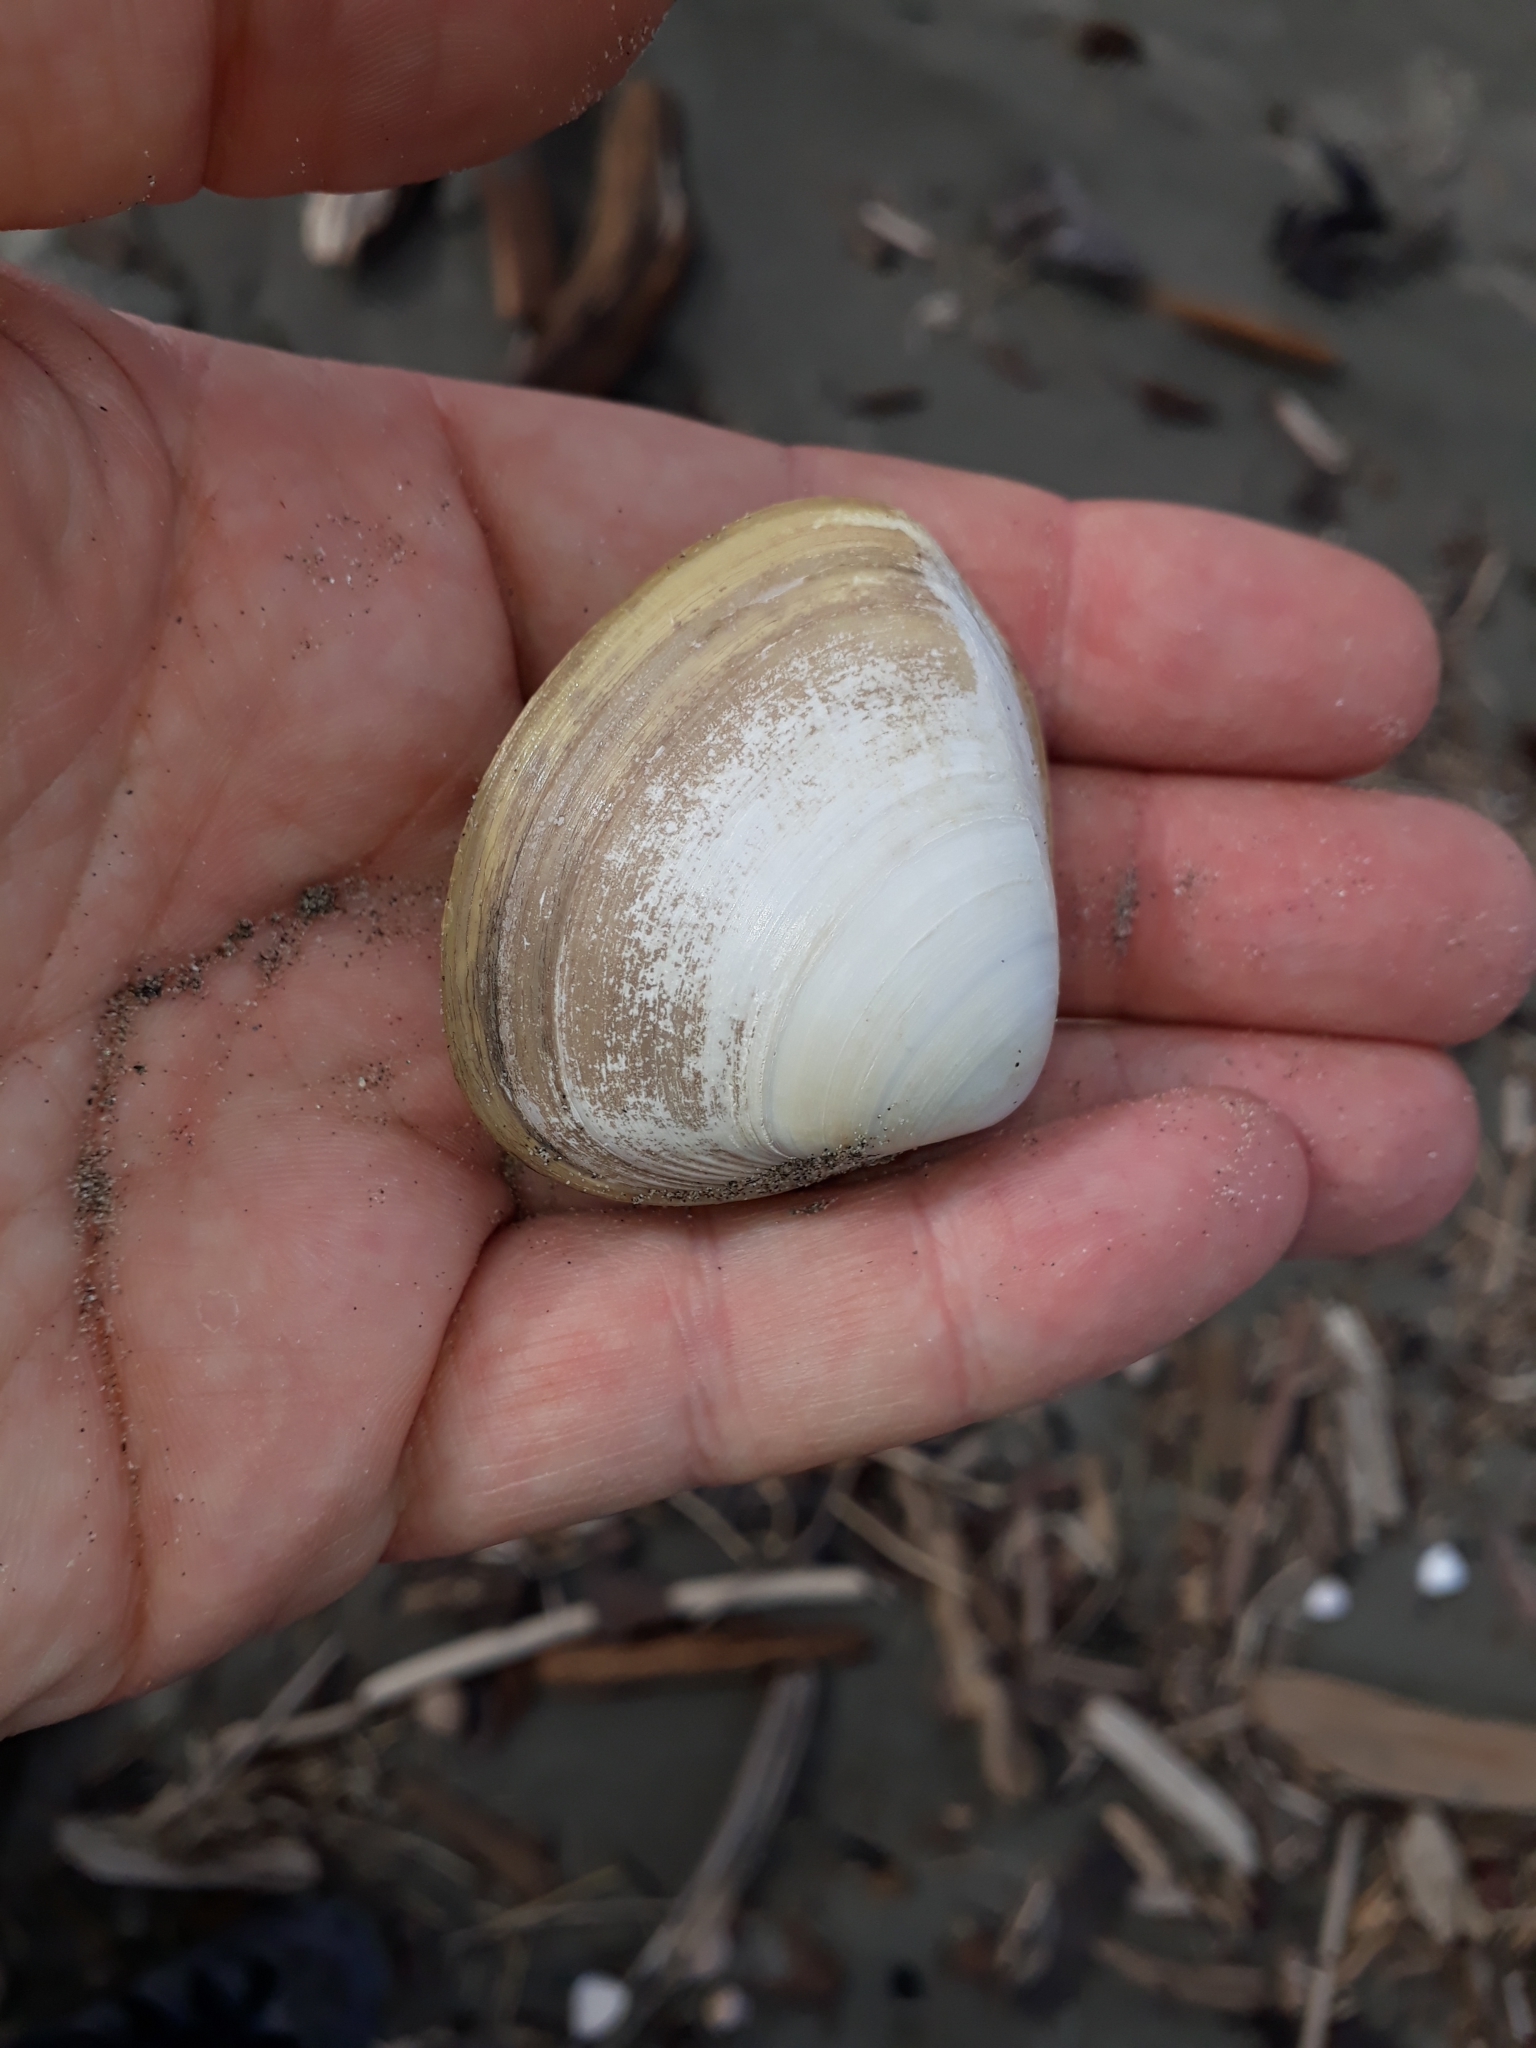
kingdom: Animalia
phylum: Mollusca
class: Bivalvia
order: Venerida
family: Mactridae
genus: Spisula
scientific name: Spisula murchisoni
